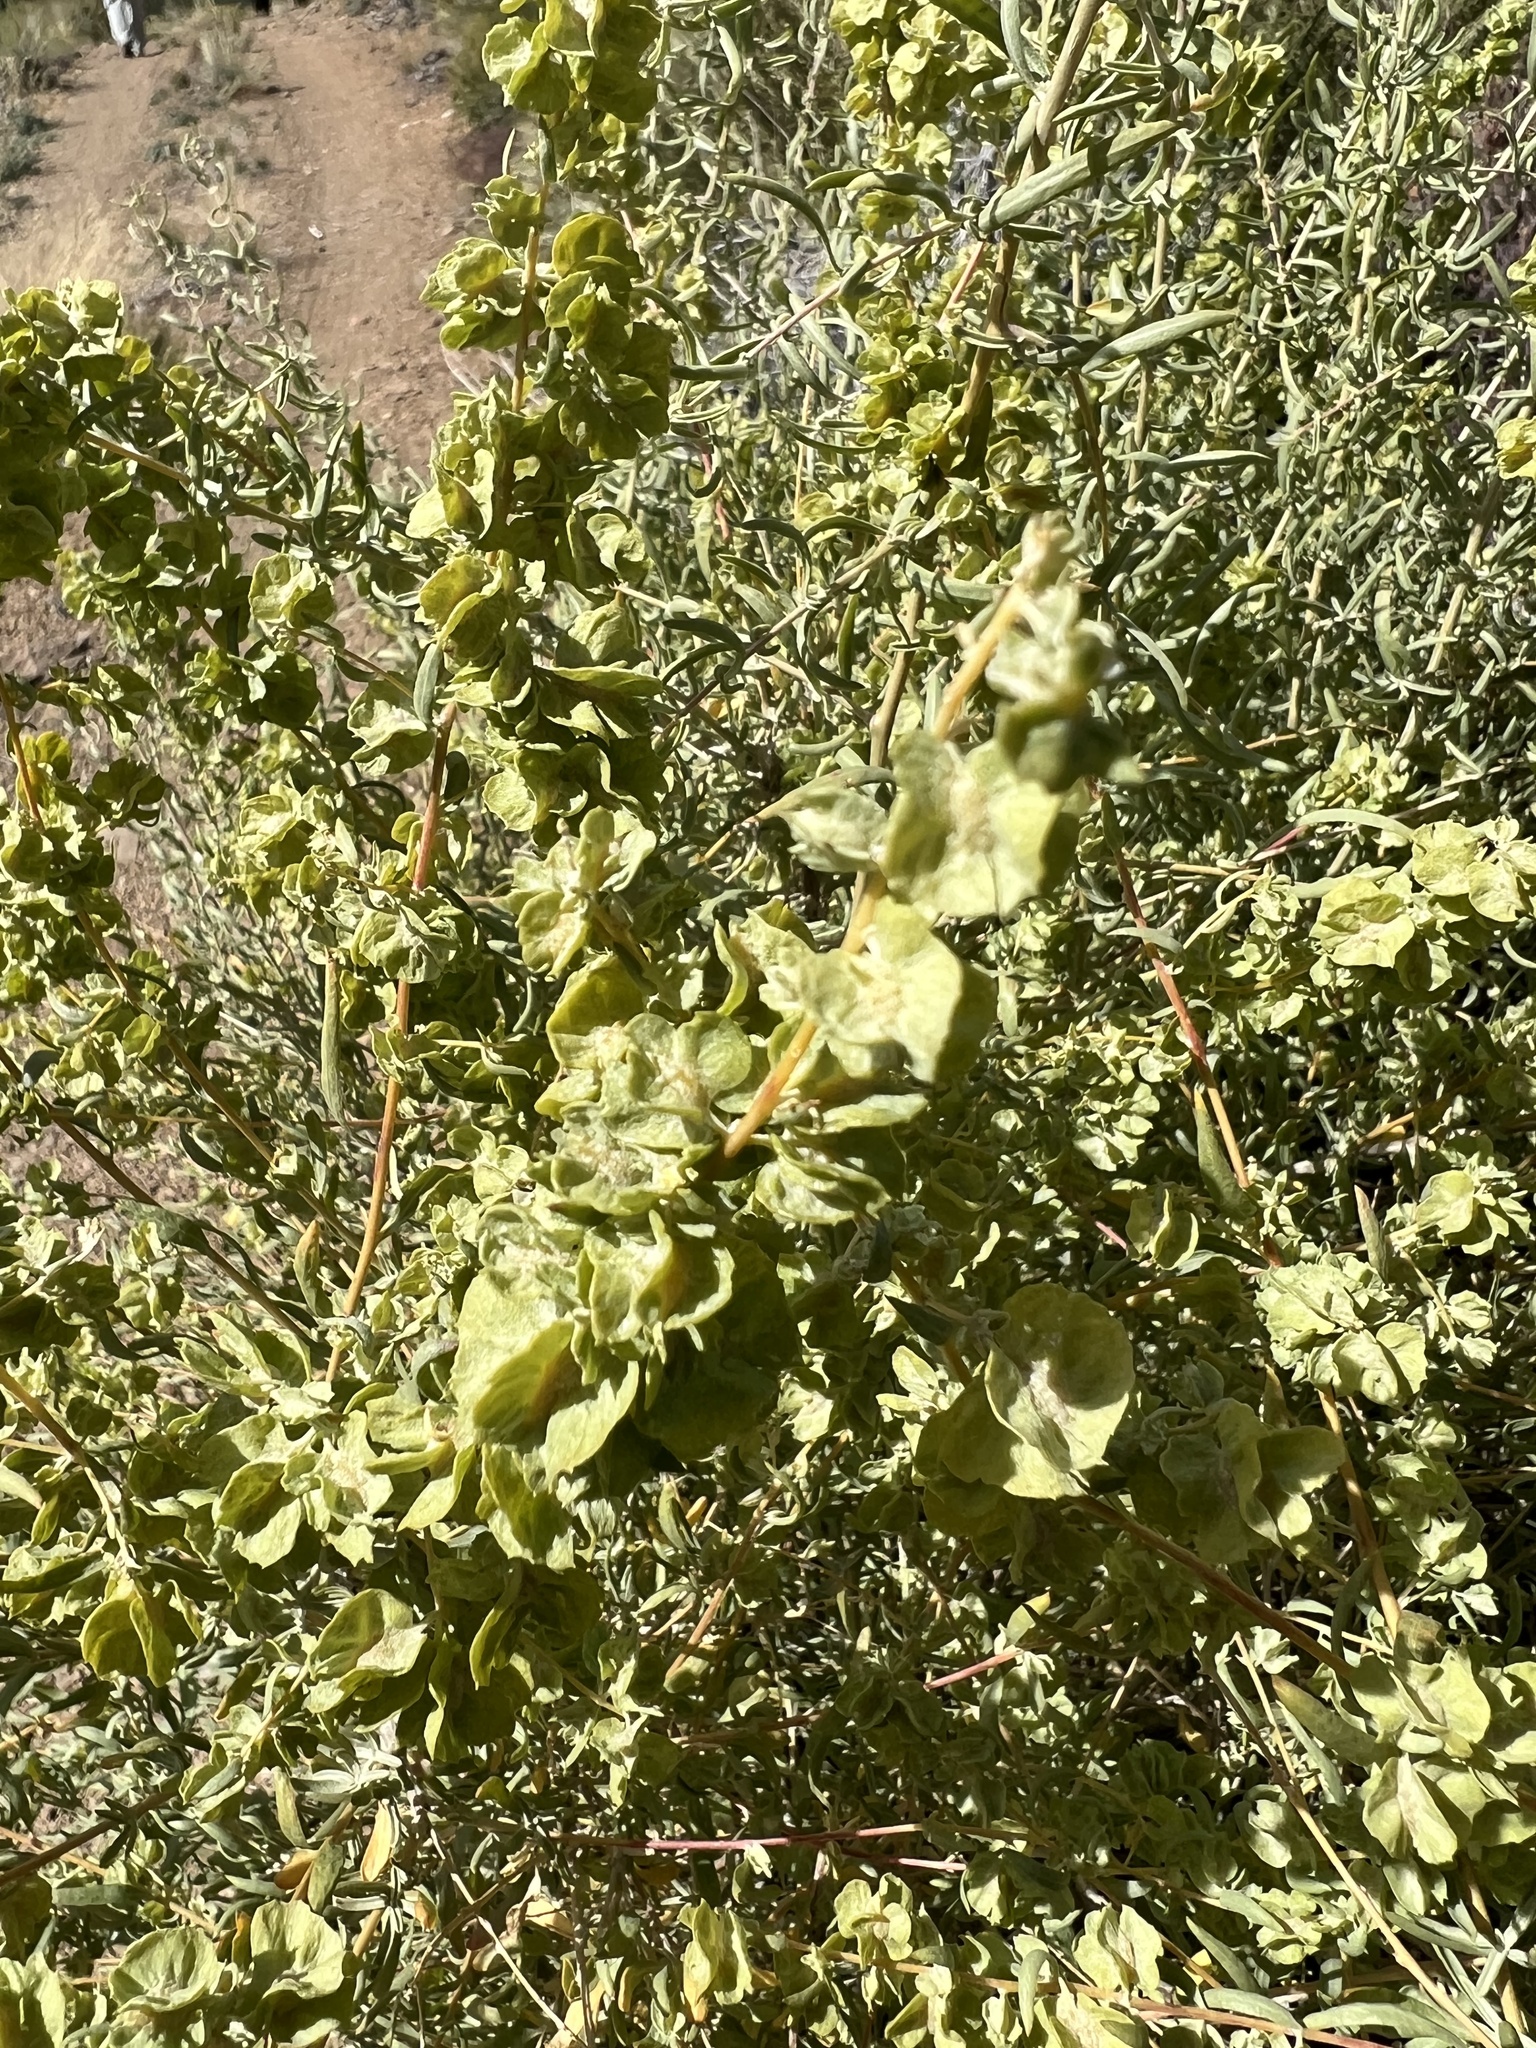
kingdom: Plantae
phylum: Tracheophyta
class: Magnoliopsida
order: Caryophyllales
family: Amaranthaceae
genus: Atriplex
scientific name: Atriplex canescens
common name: Four-wing saltbush
